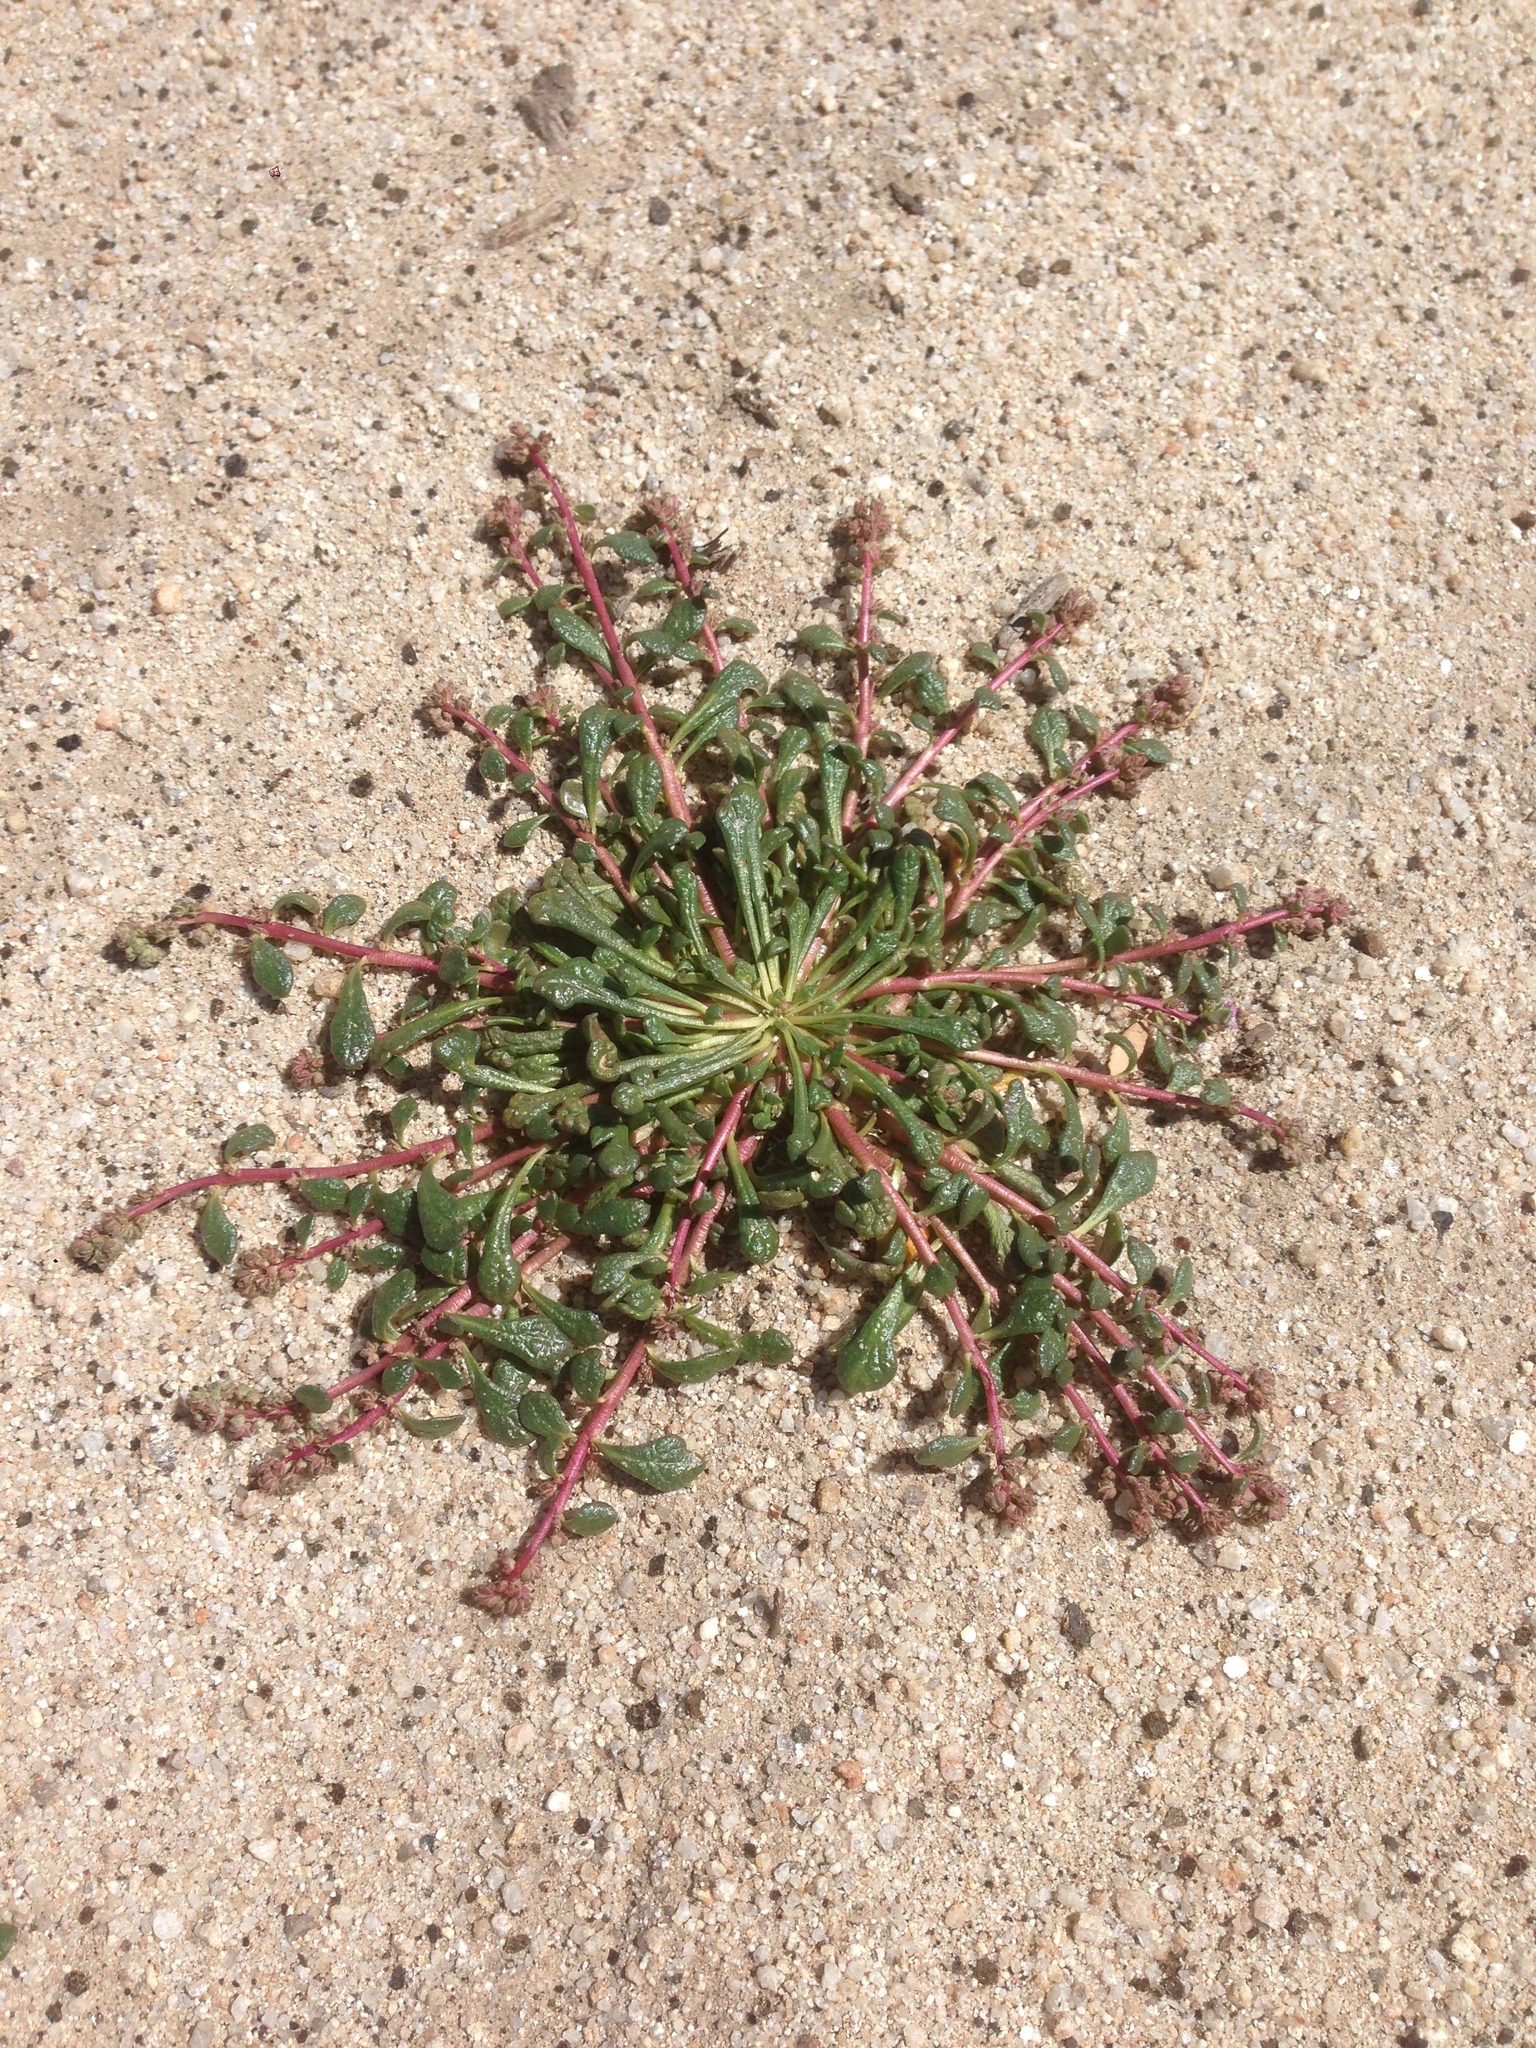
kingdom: Plantae
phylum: Tracheophyta
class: Magnoliopsida
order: Caryophyllales
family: Montiaceae
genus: Calyptridium
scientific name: Calyptridium monandrum
